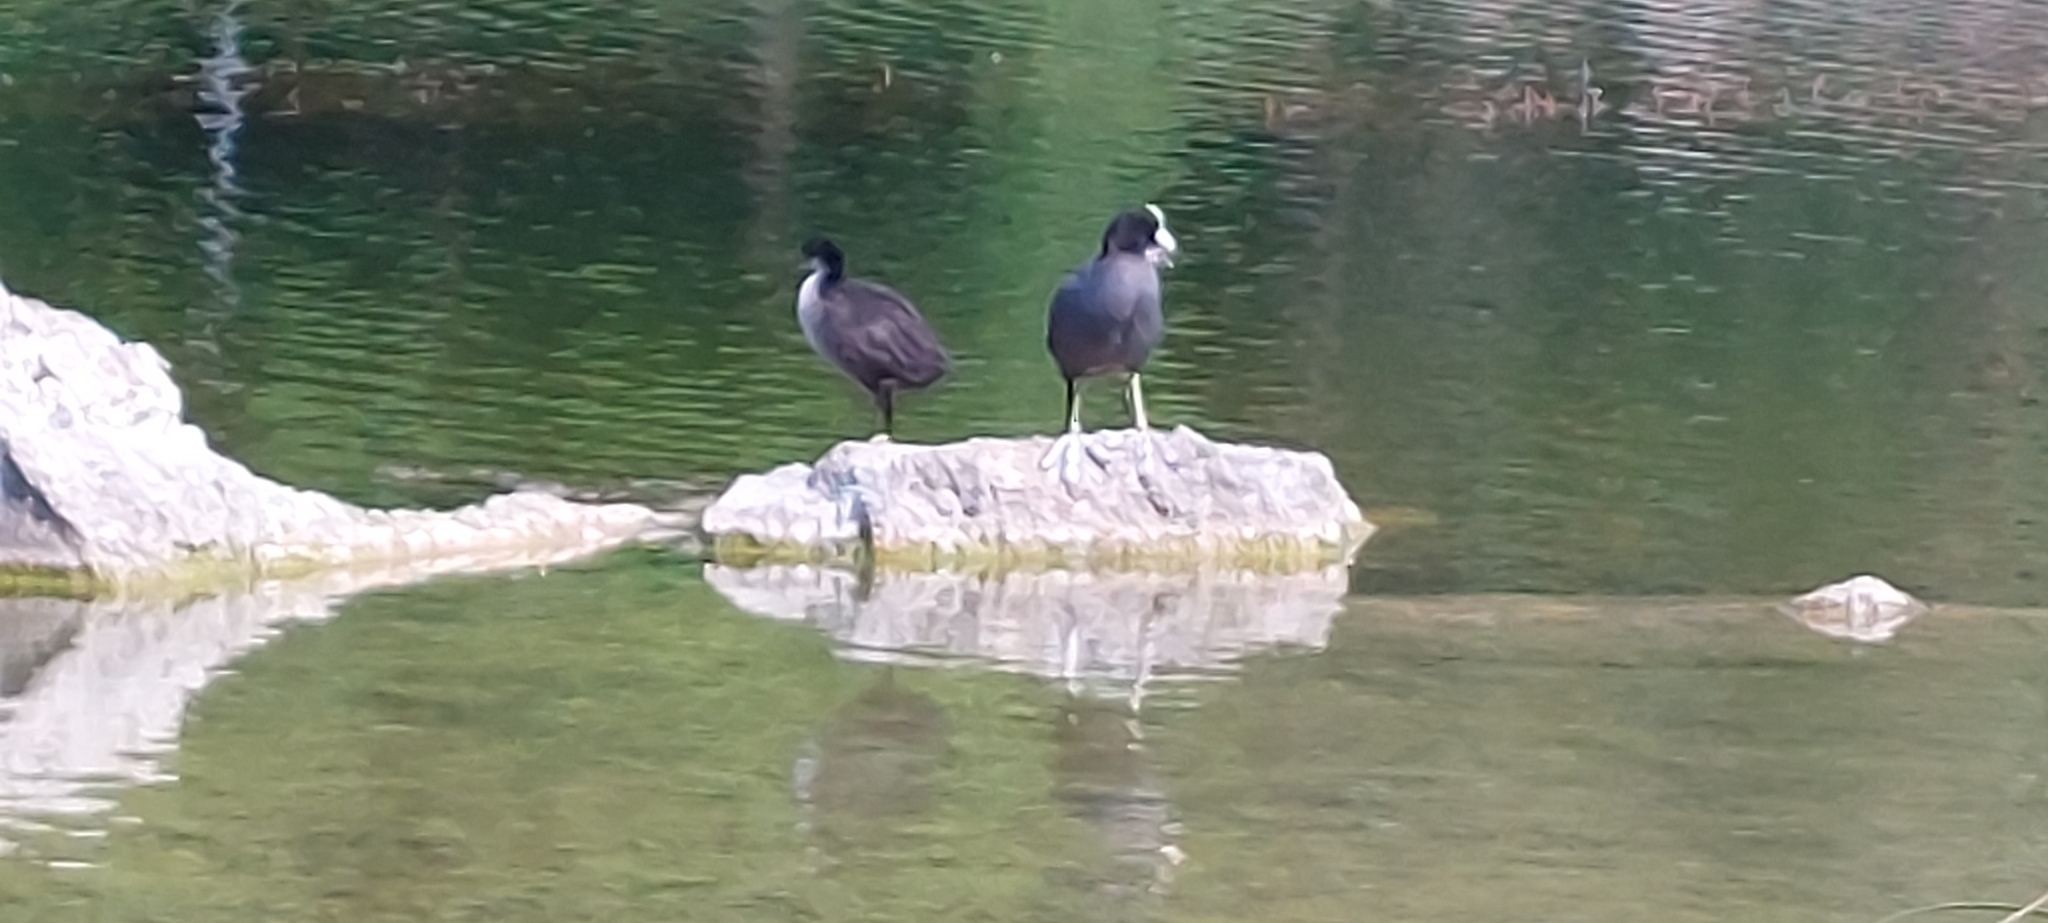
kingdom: Animalia
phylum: Chordata
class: Aves
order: Gruiformes
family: Rallidae
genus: Fulica
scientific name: Fulica atra
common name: Eurasian coot
